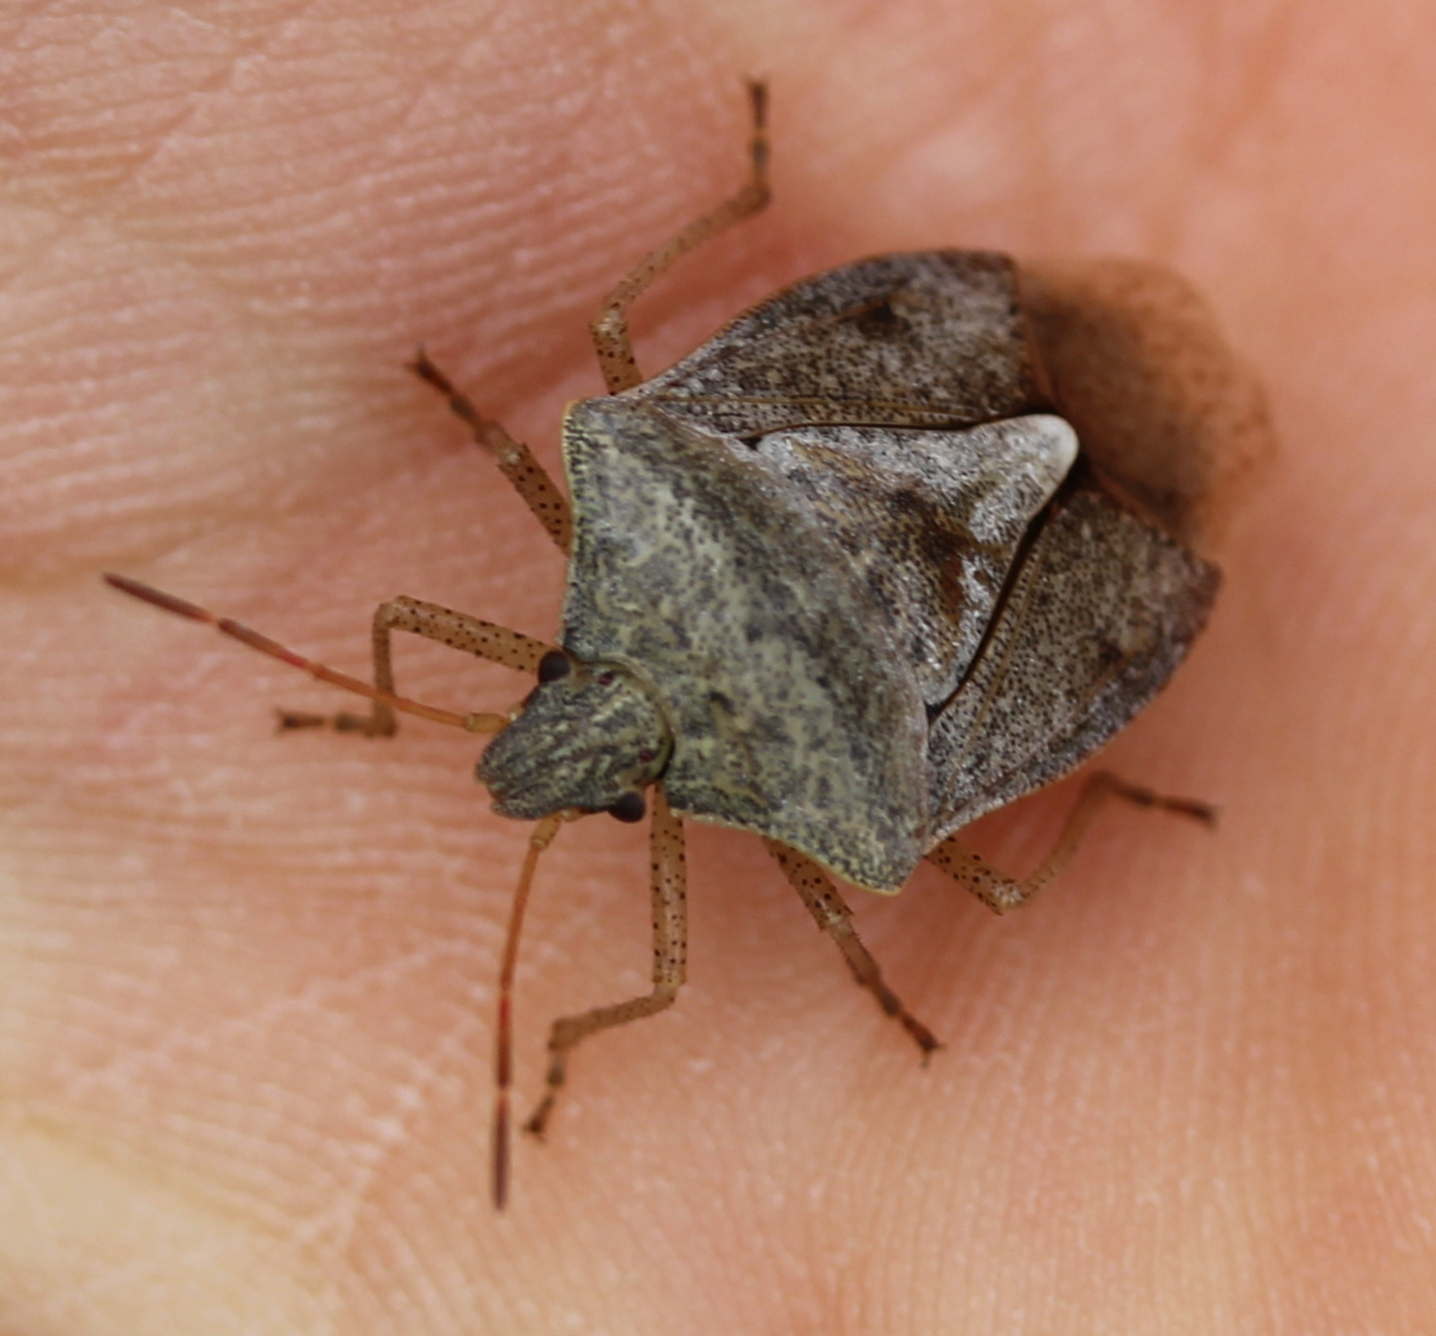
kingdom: Animalia
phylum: Arthropoda
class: Insecta
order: Hemiptera
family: Pentatomidae
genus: Euschistus
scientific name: Euschistus servus
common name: Brown stink bug
